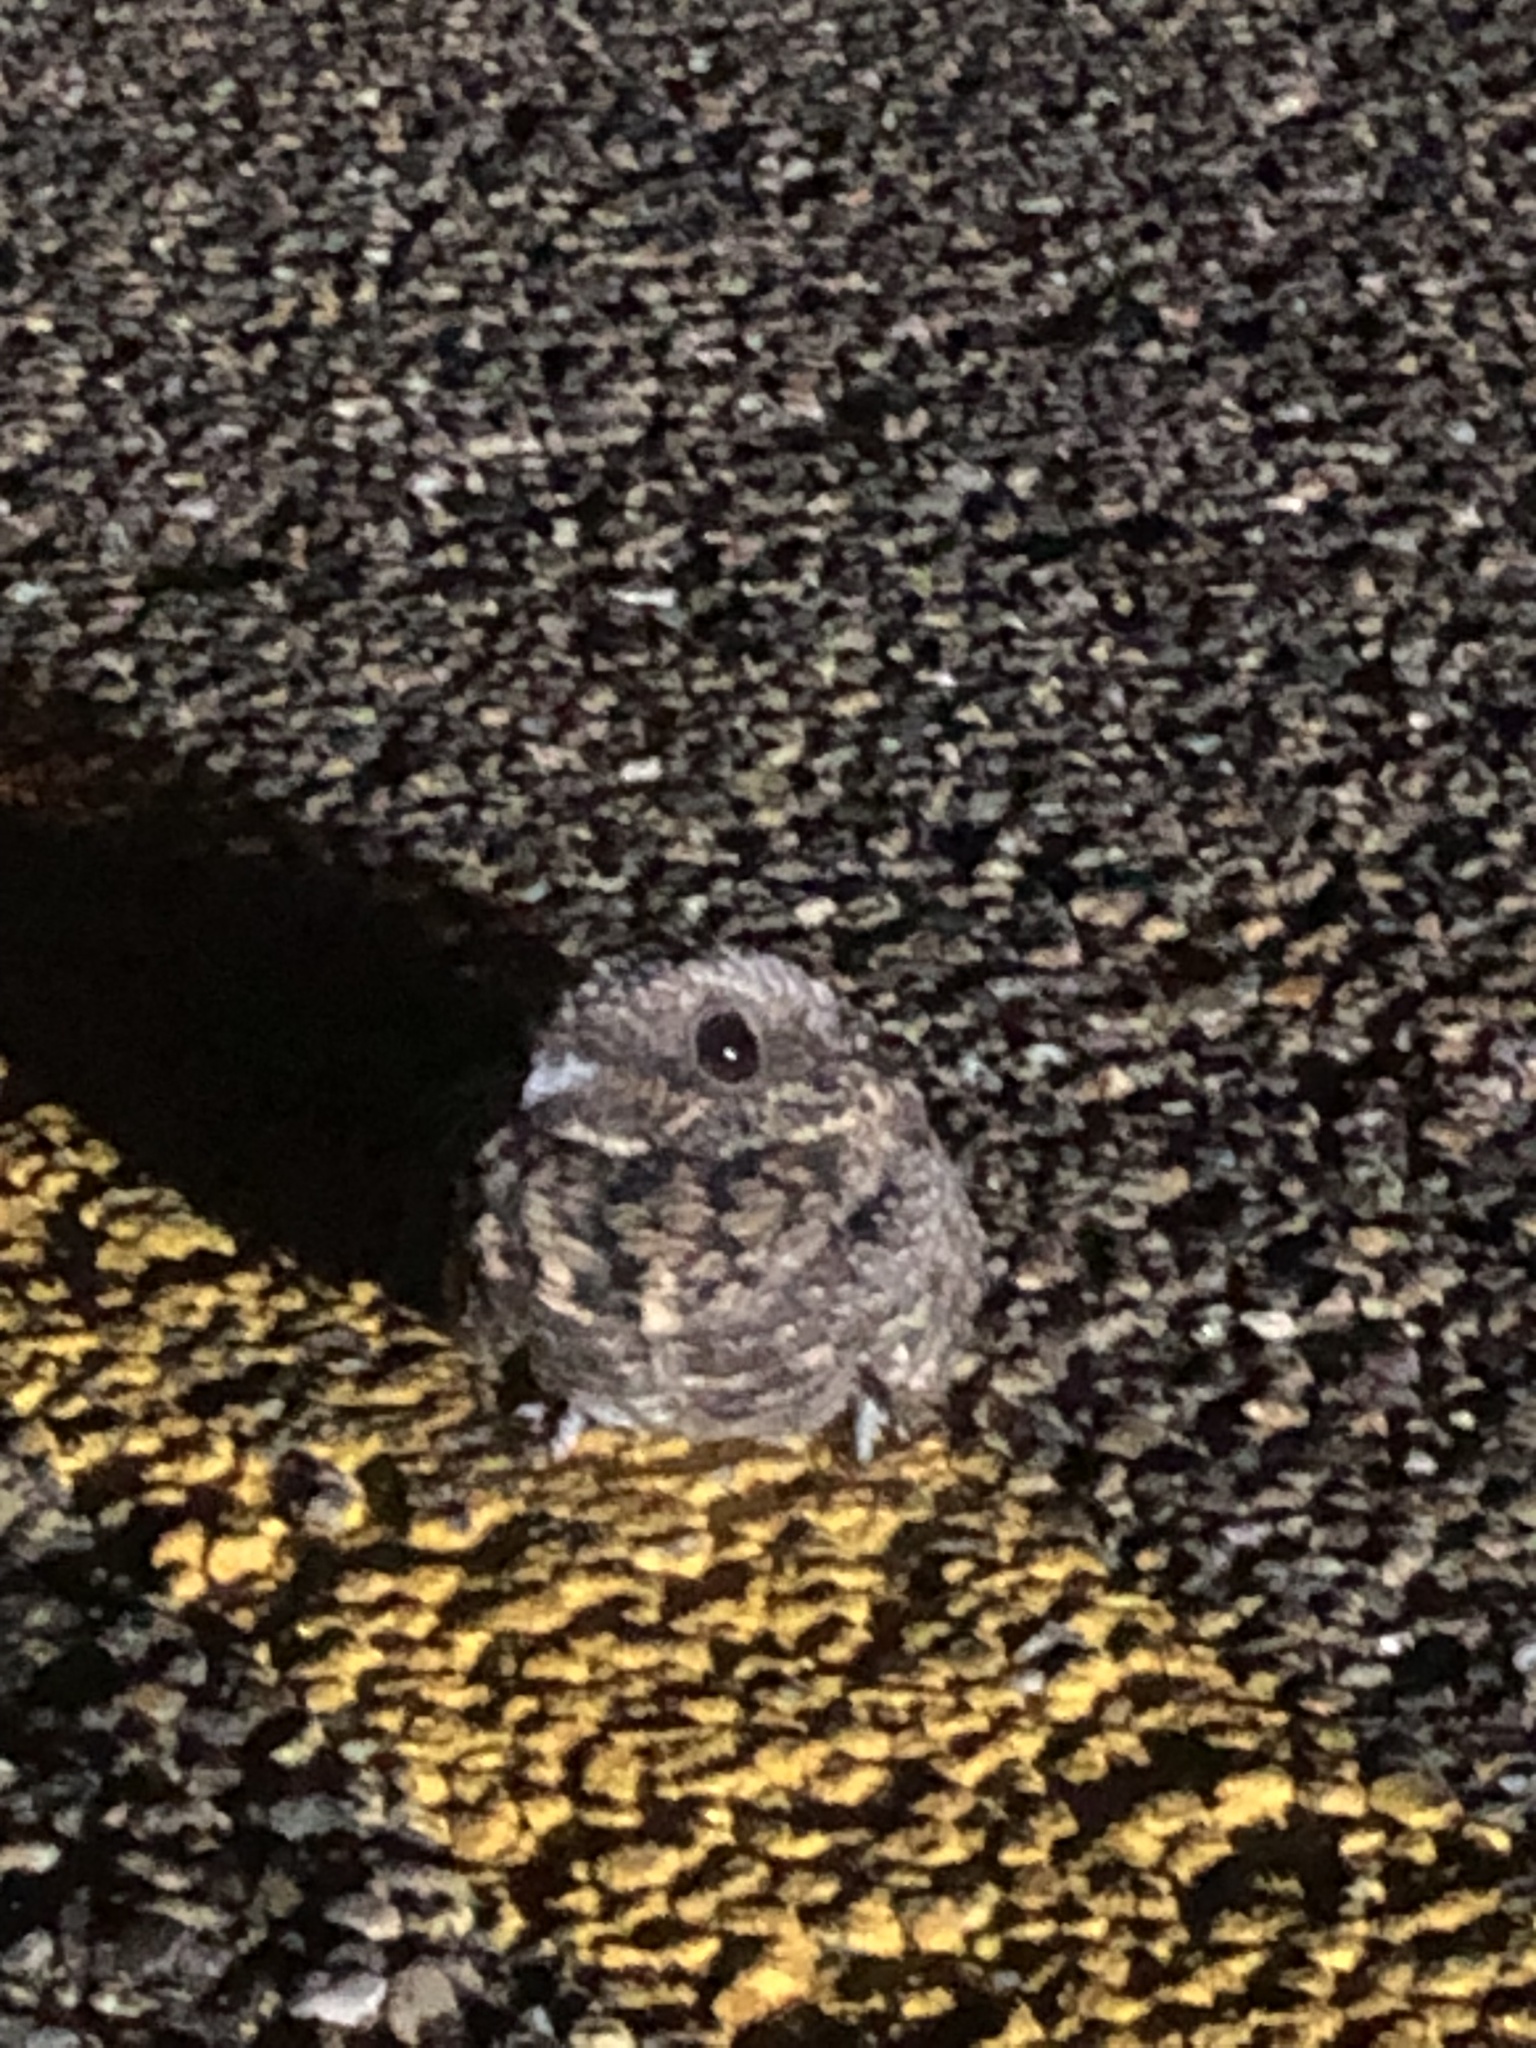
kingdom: Animalia
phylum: Chordata
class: Aves
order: Caprimulgiformes
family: Caprimulgidae
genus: Phalaenoptilus
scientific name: Phalaenoptilus nuttallii
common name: Common poorwill
